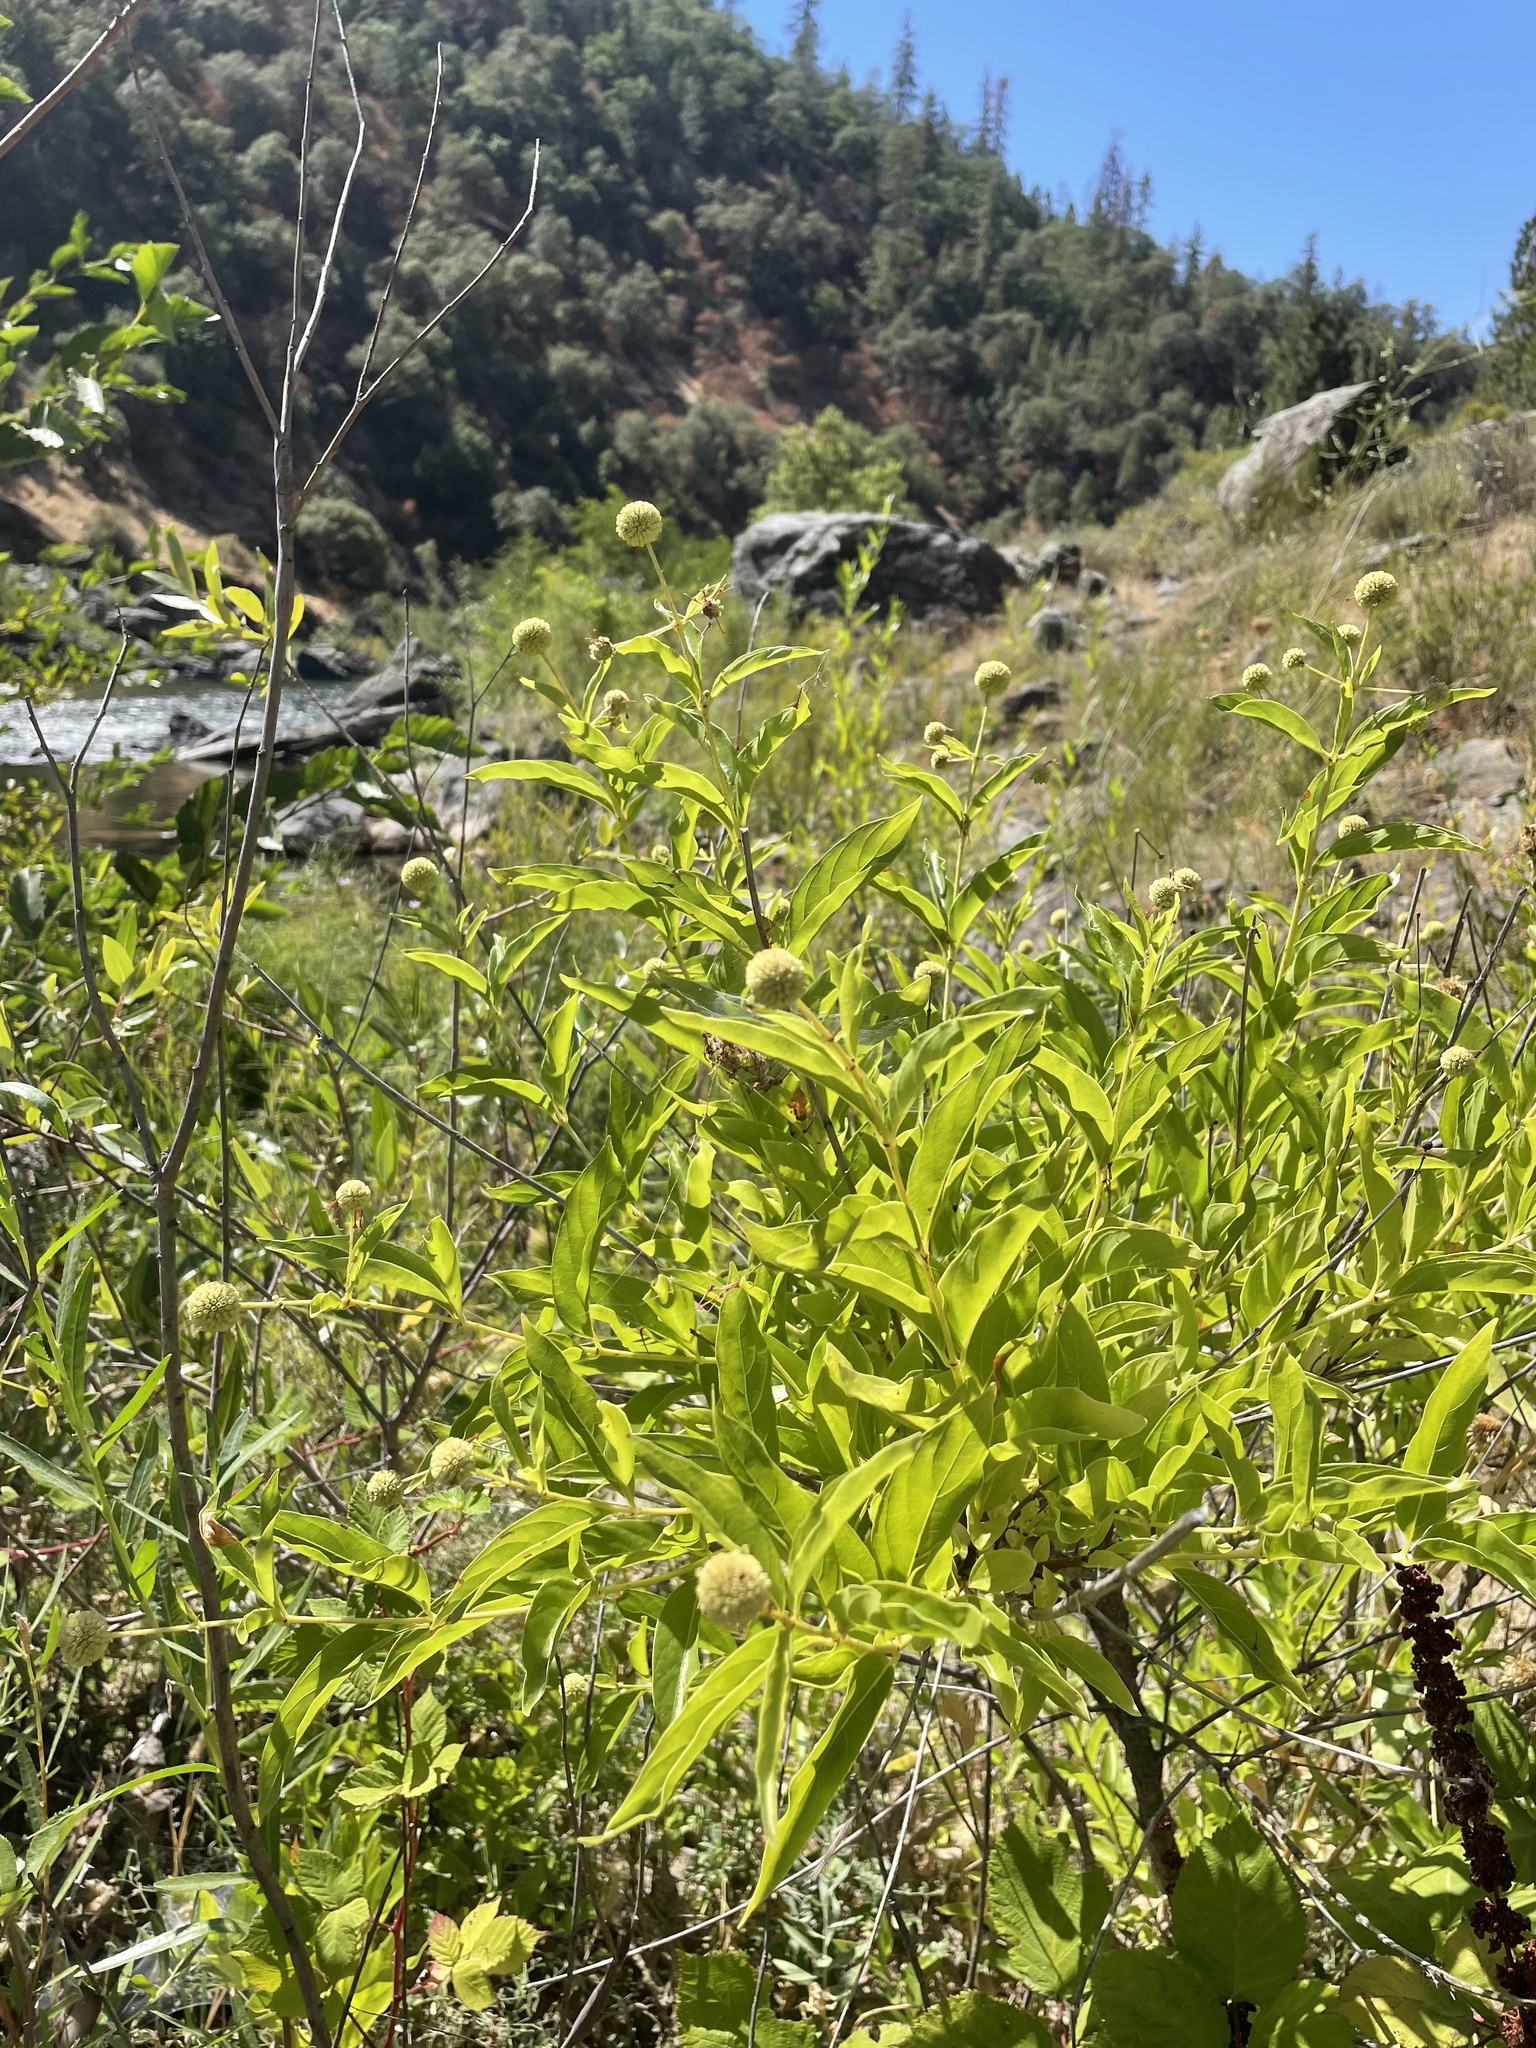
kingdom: Plantae
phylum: Tracheophyta
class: Magnoliopsida
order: Gentianales
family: Rubiaceae
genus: Cephalanthus
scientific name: Cephalanthus occidentalis
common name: Button-willow
